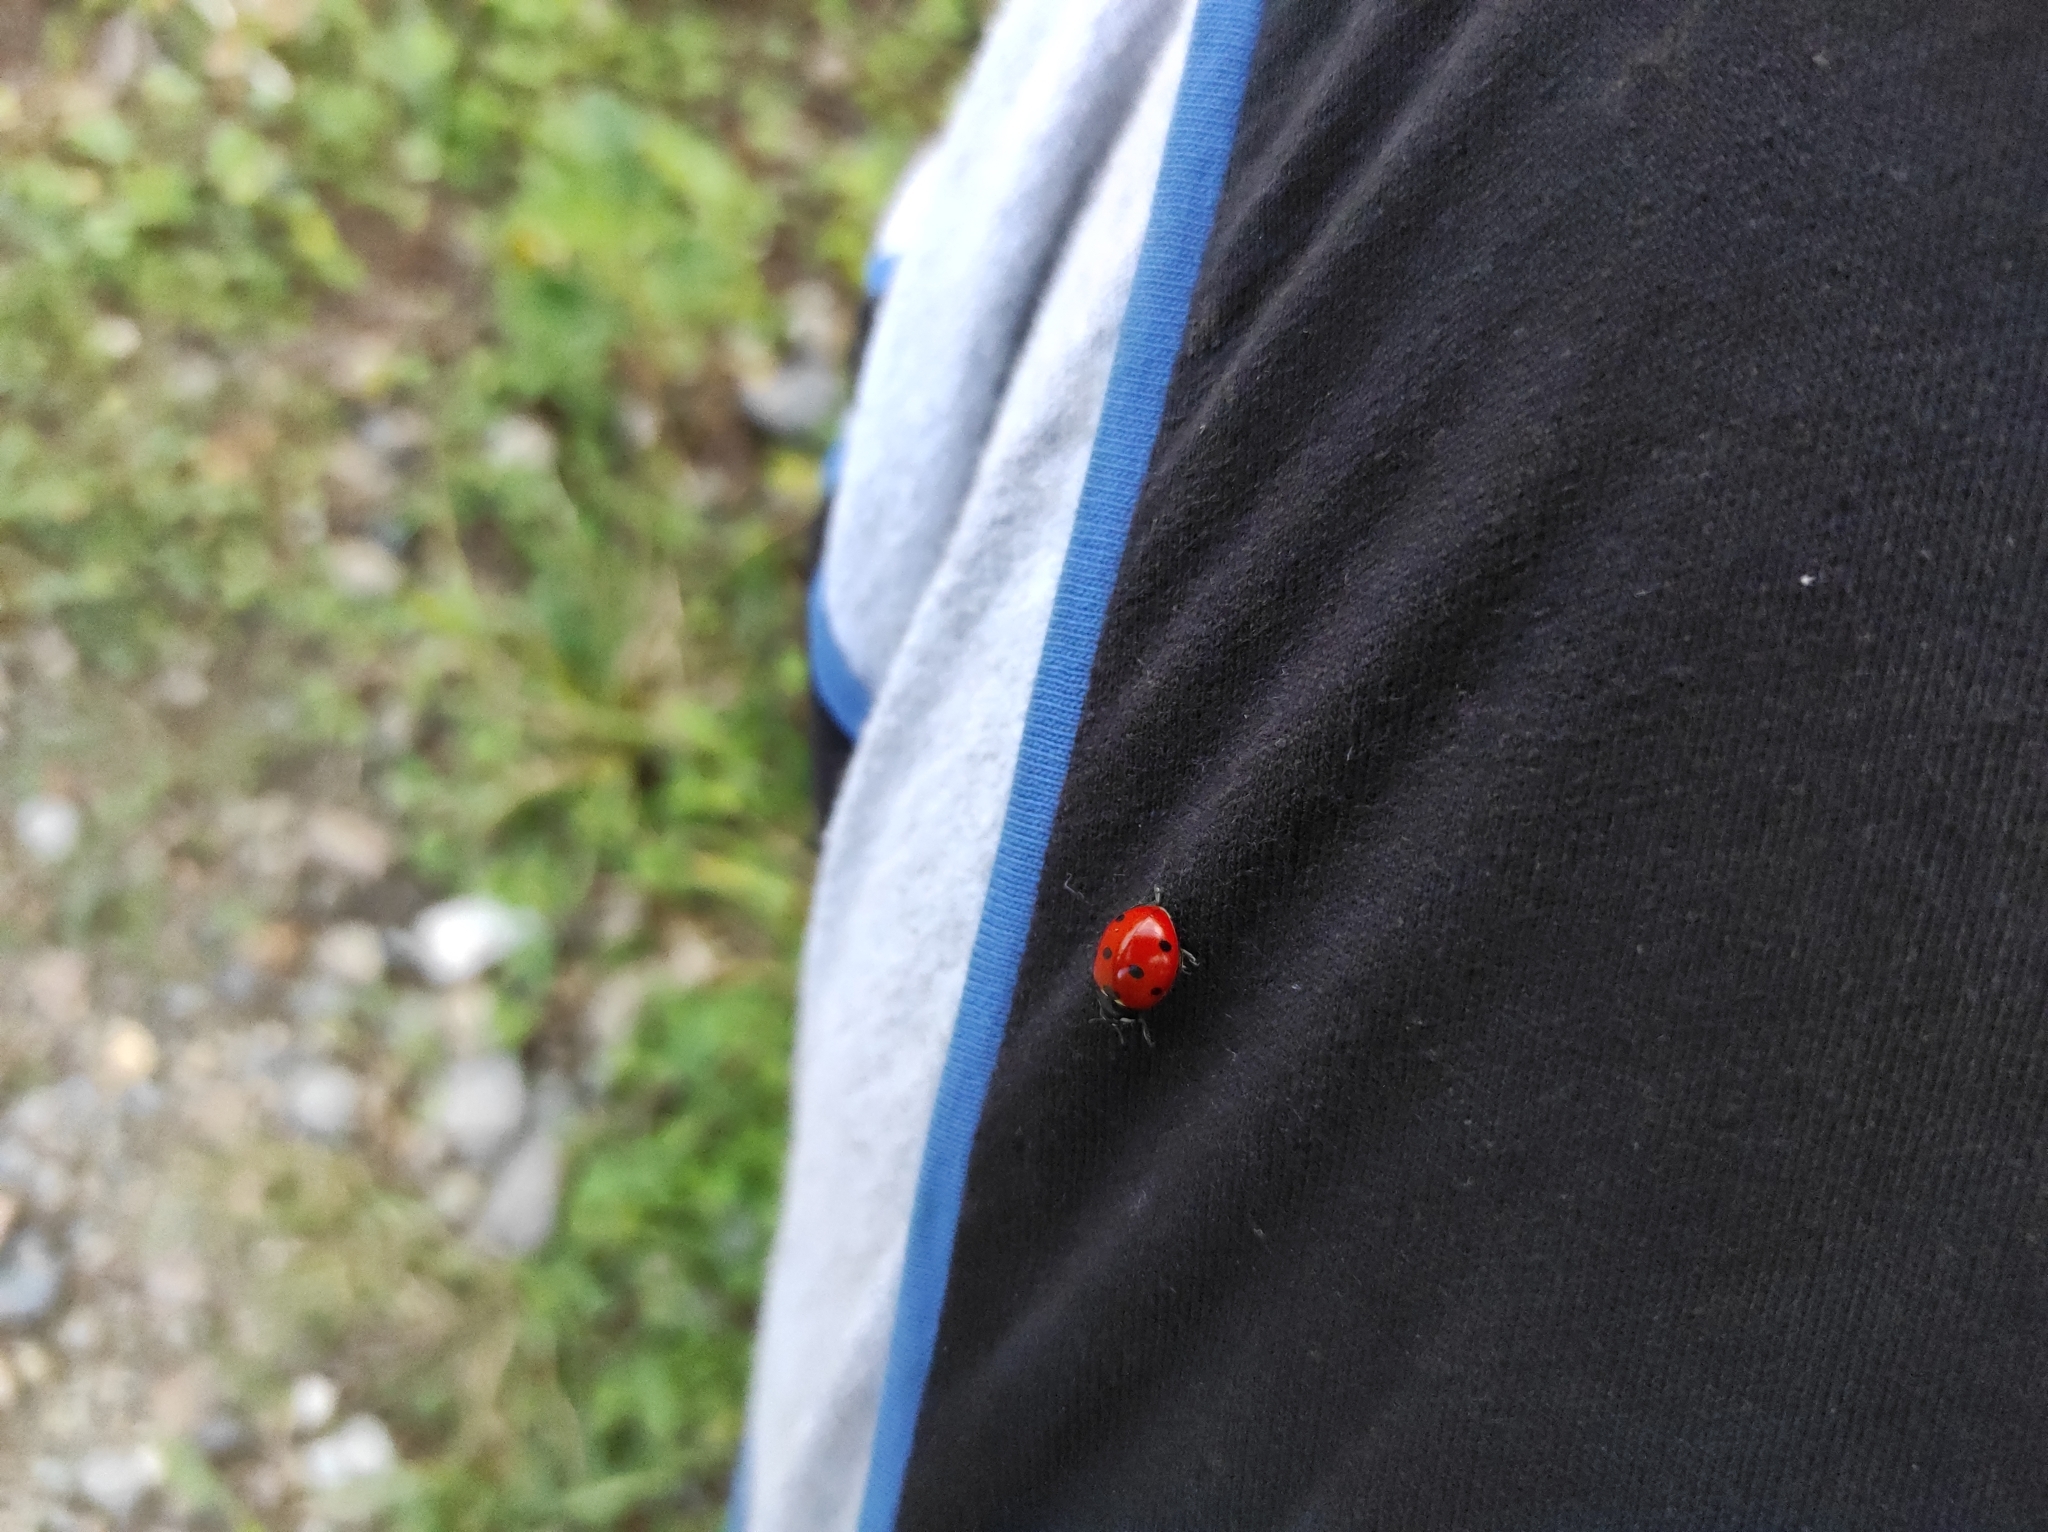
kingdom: Animalia
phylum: Arthropoda
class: Insecta
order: Coleoptera
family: Coccinellidae
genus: Coccinella
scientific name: Coccinella septempunctata
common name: Sevenspotted lady beetle
